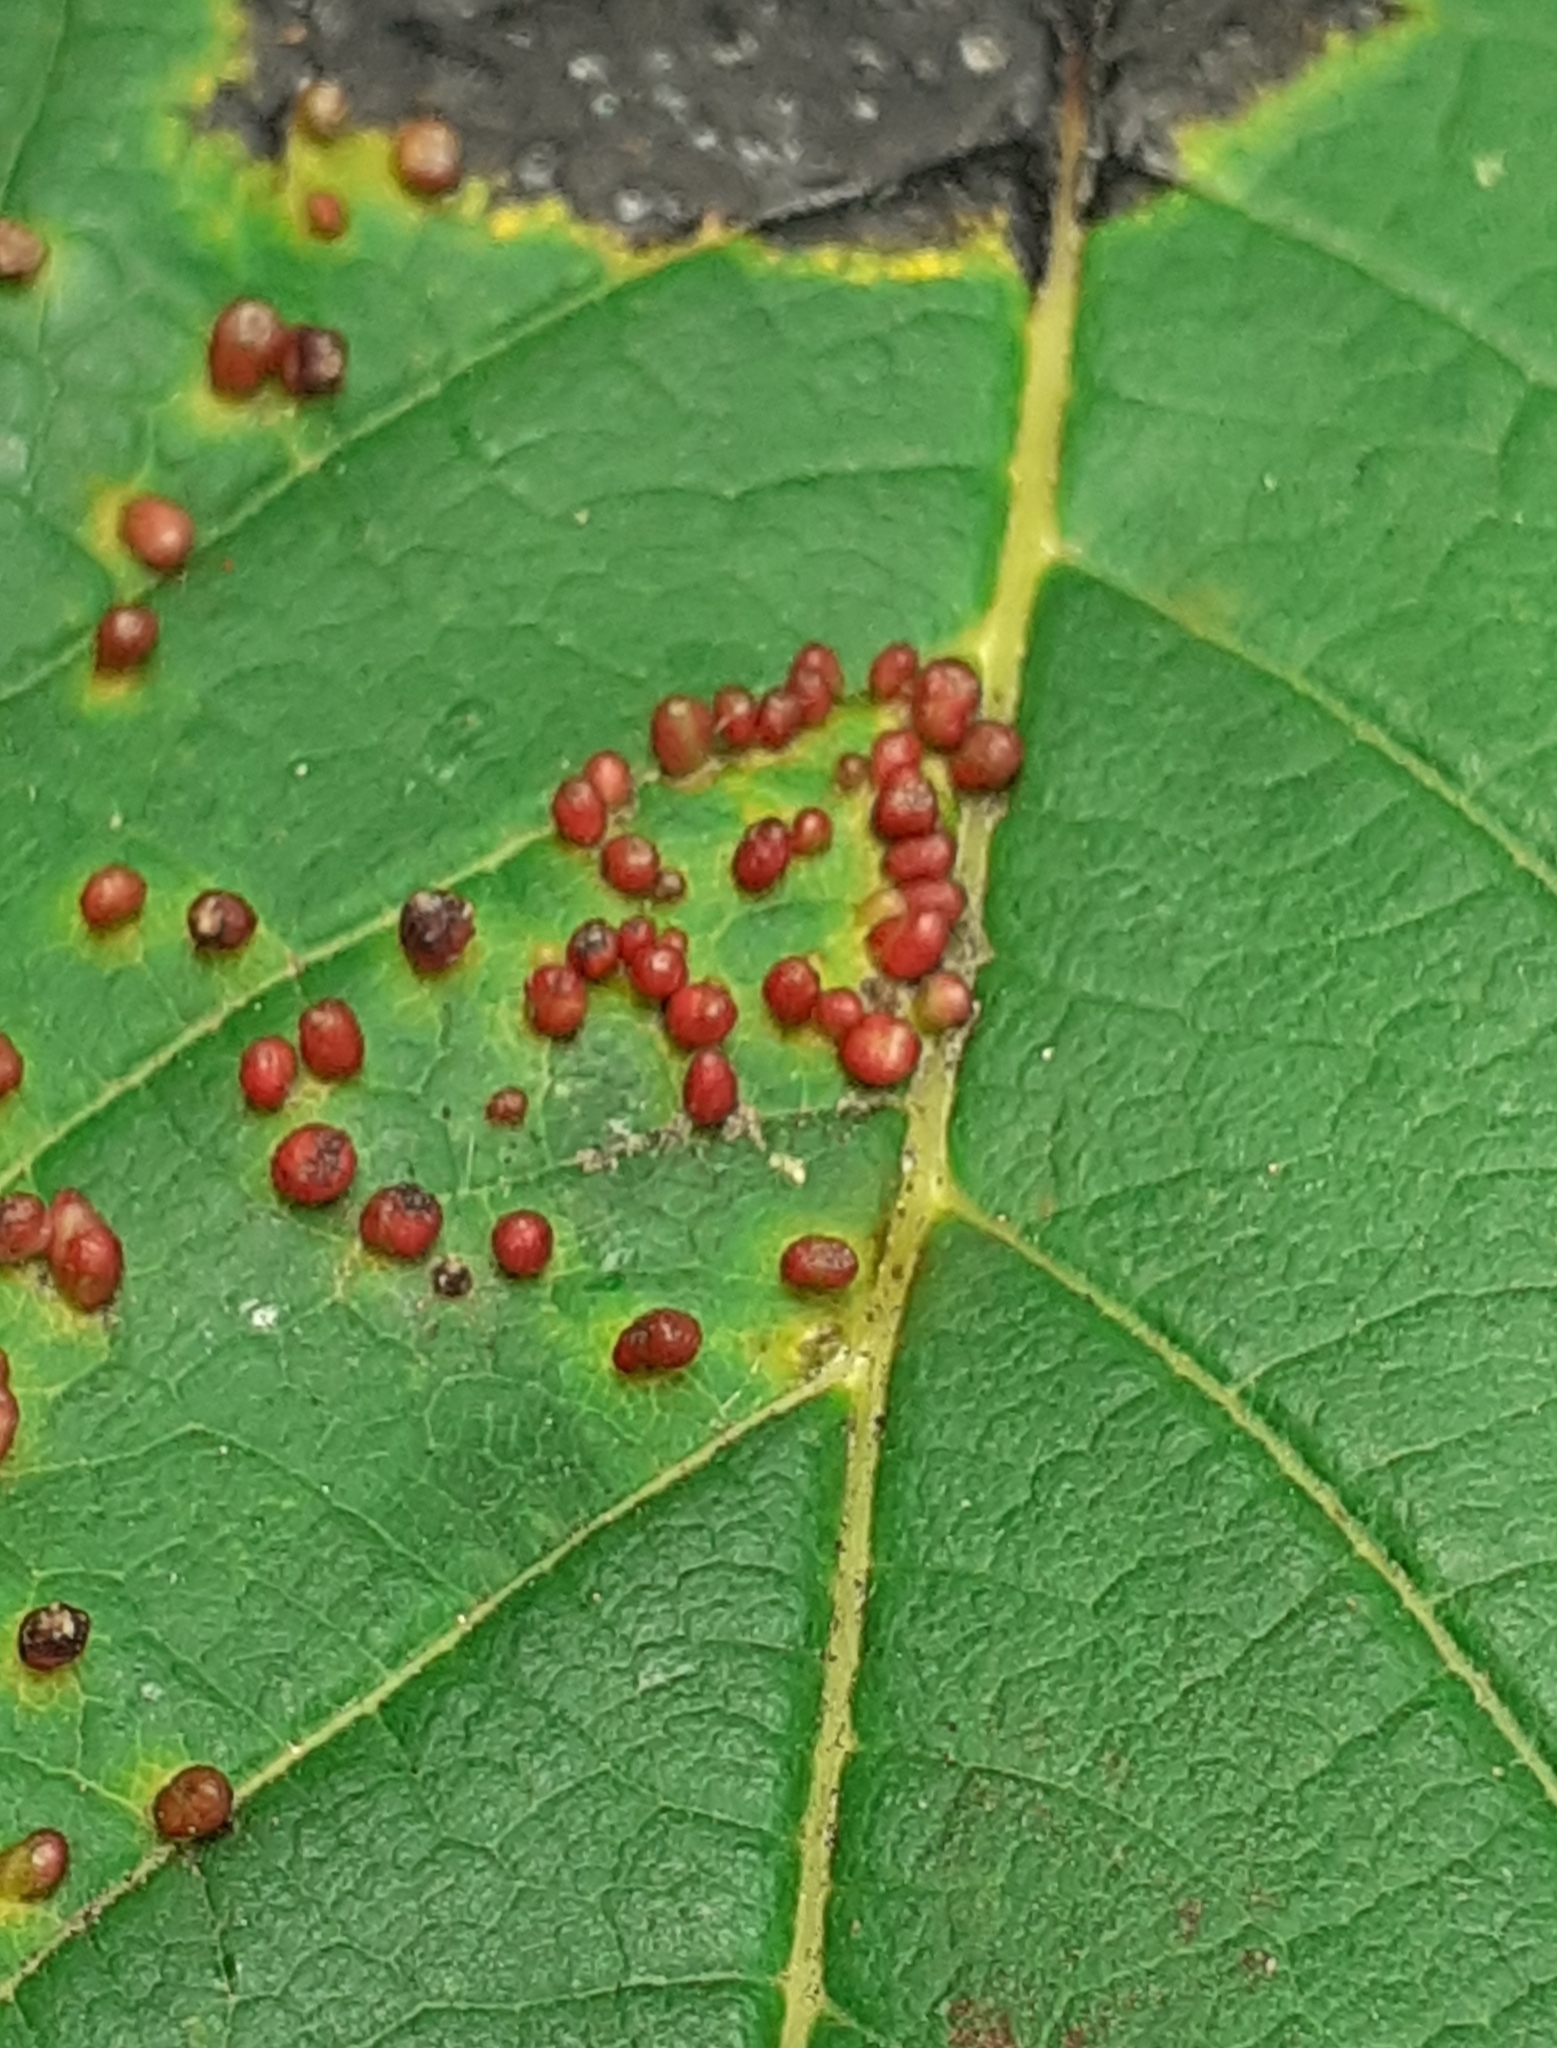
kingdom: Animalia
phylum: Arthropoda
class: Arachnida
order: Trombidiformes
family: Eriophyidae
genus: Aceria
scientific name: Aceria cephaloneus
